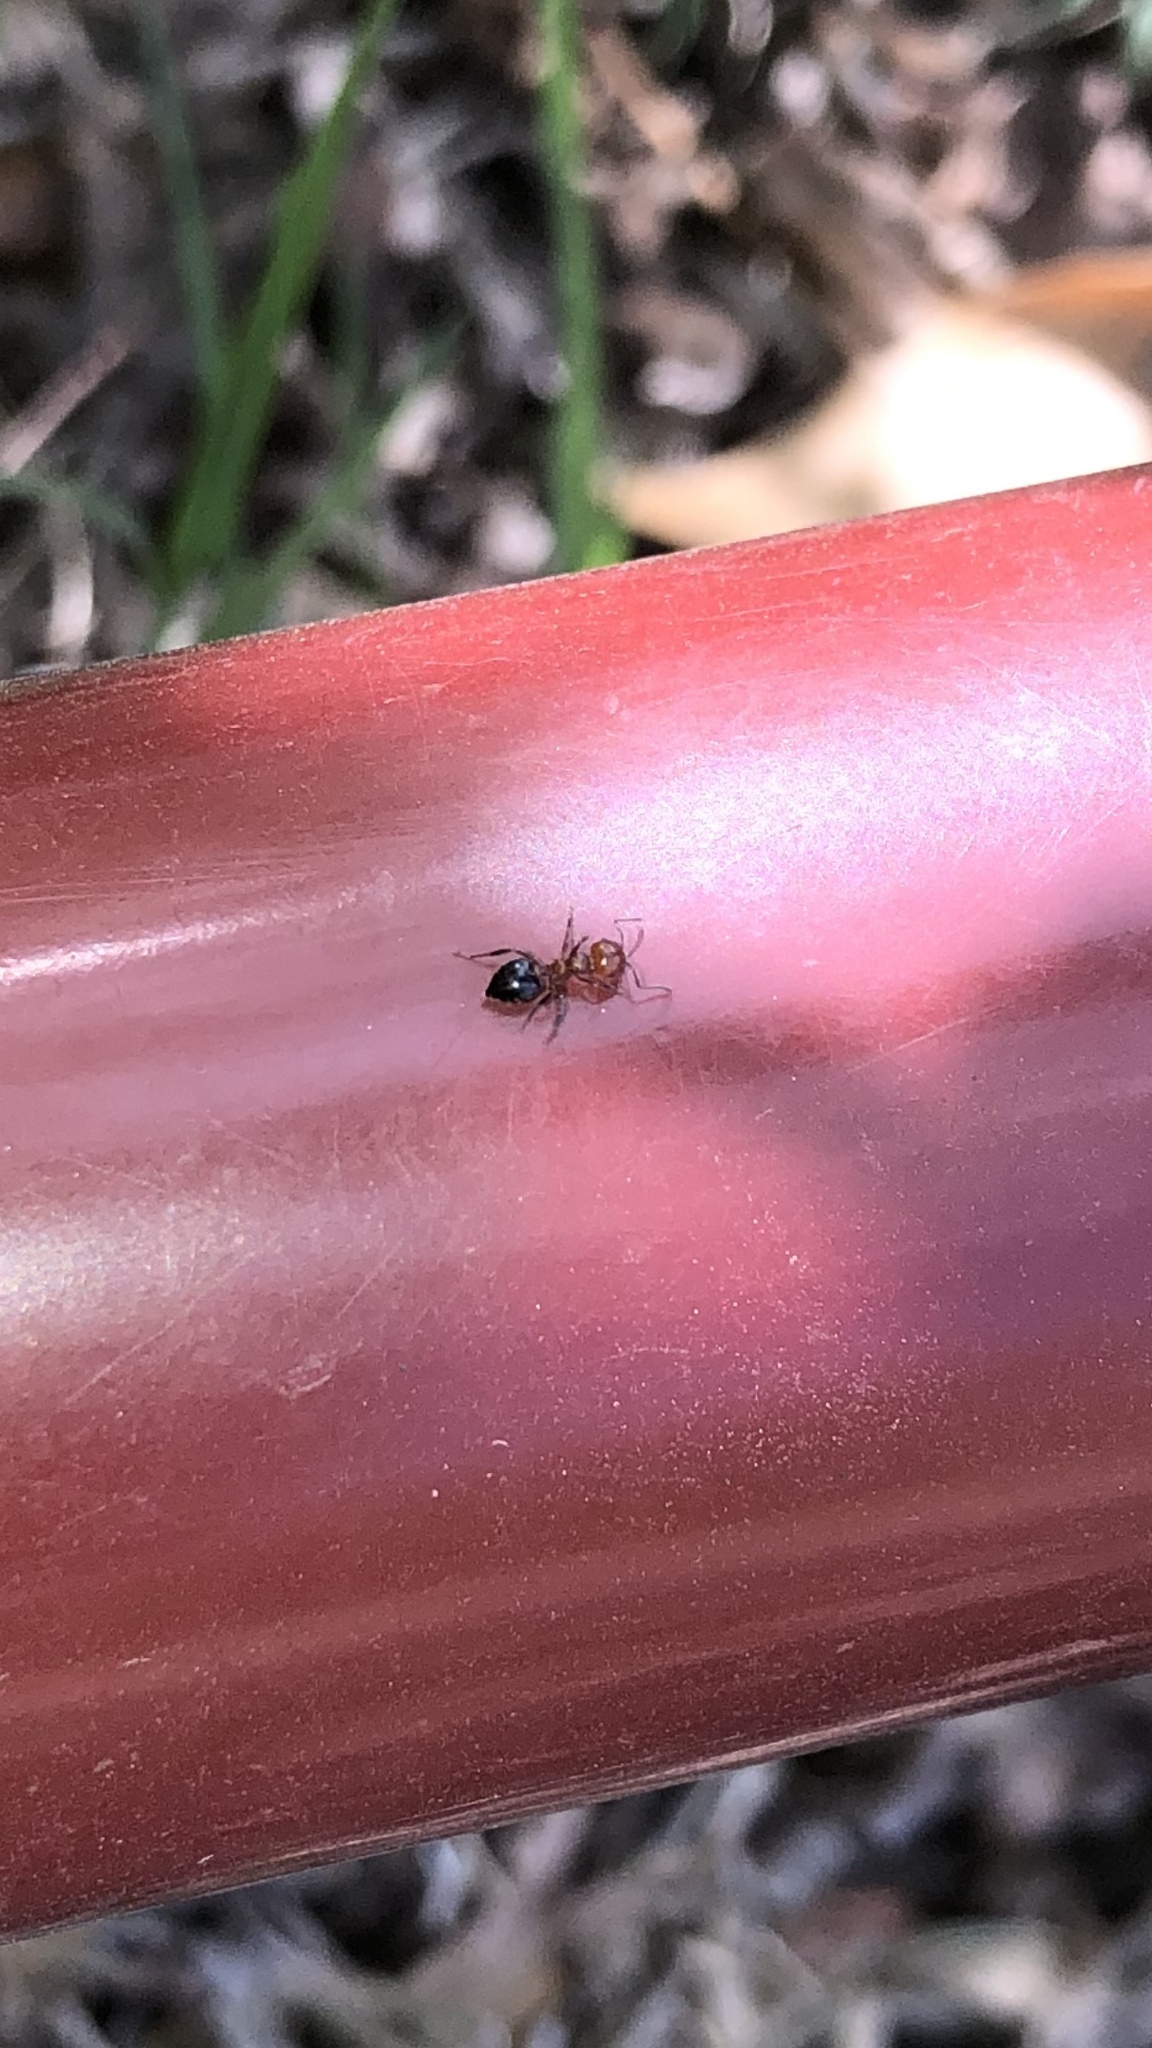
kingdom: Animalia
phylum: Arthropoda
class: Insecta
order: Hymenoptera
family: Formicidae
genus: Crematogaster
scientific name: Crematogaster laeviuscula
